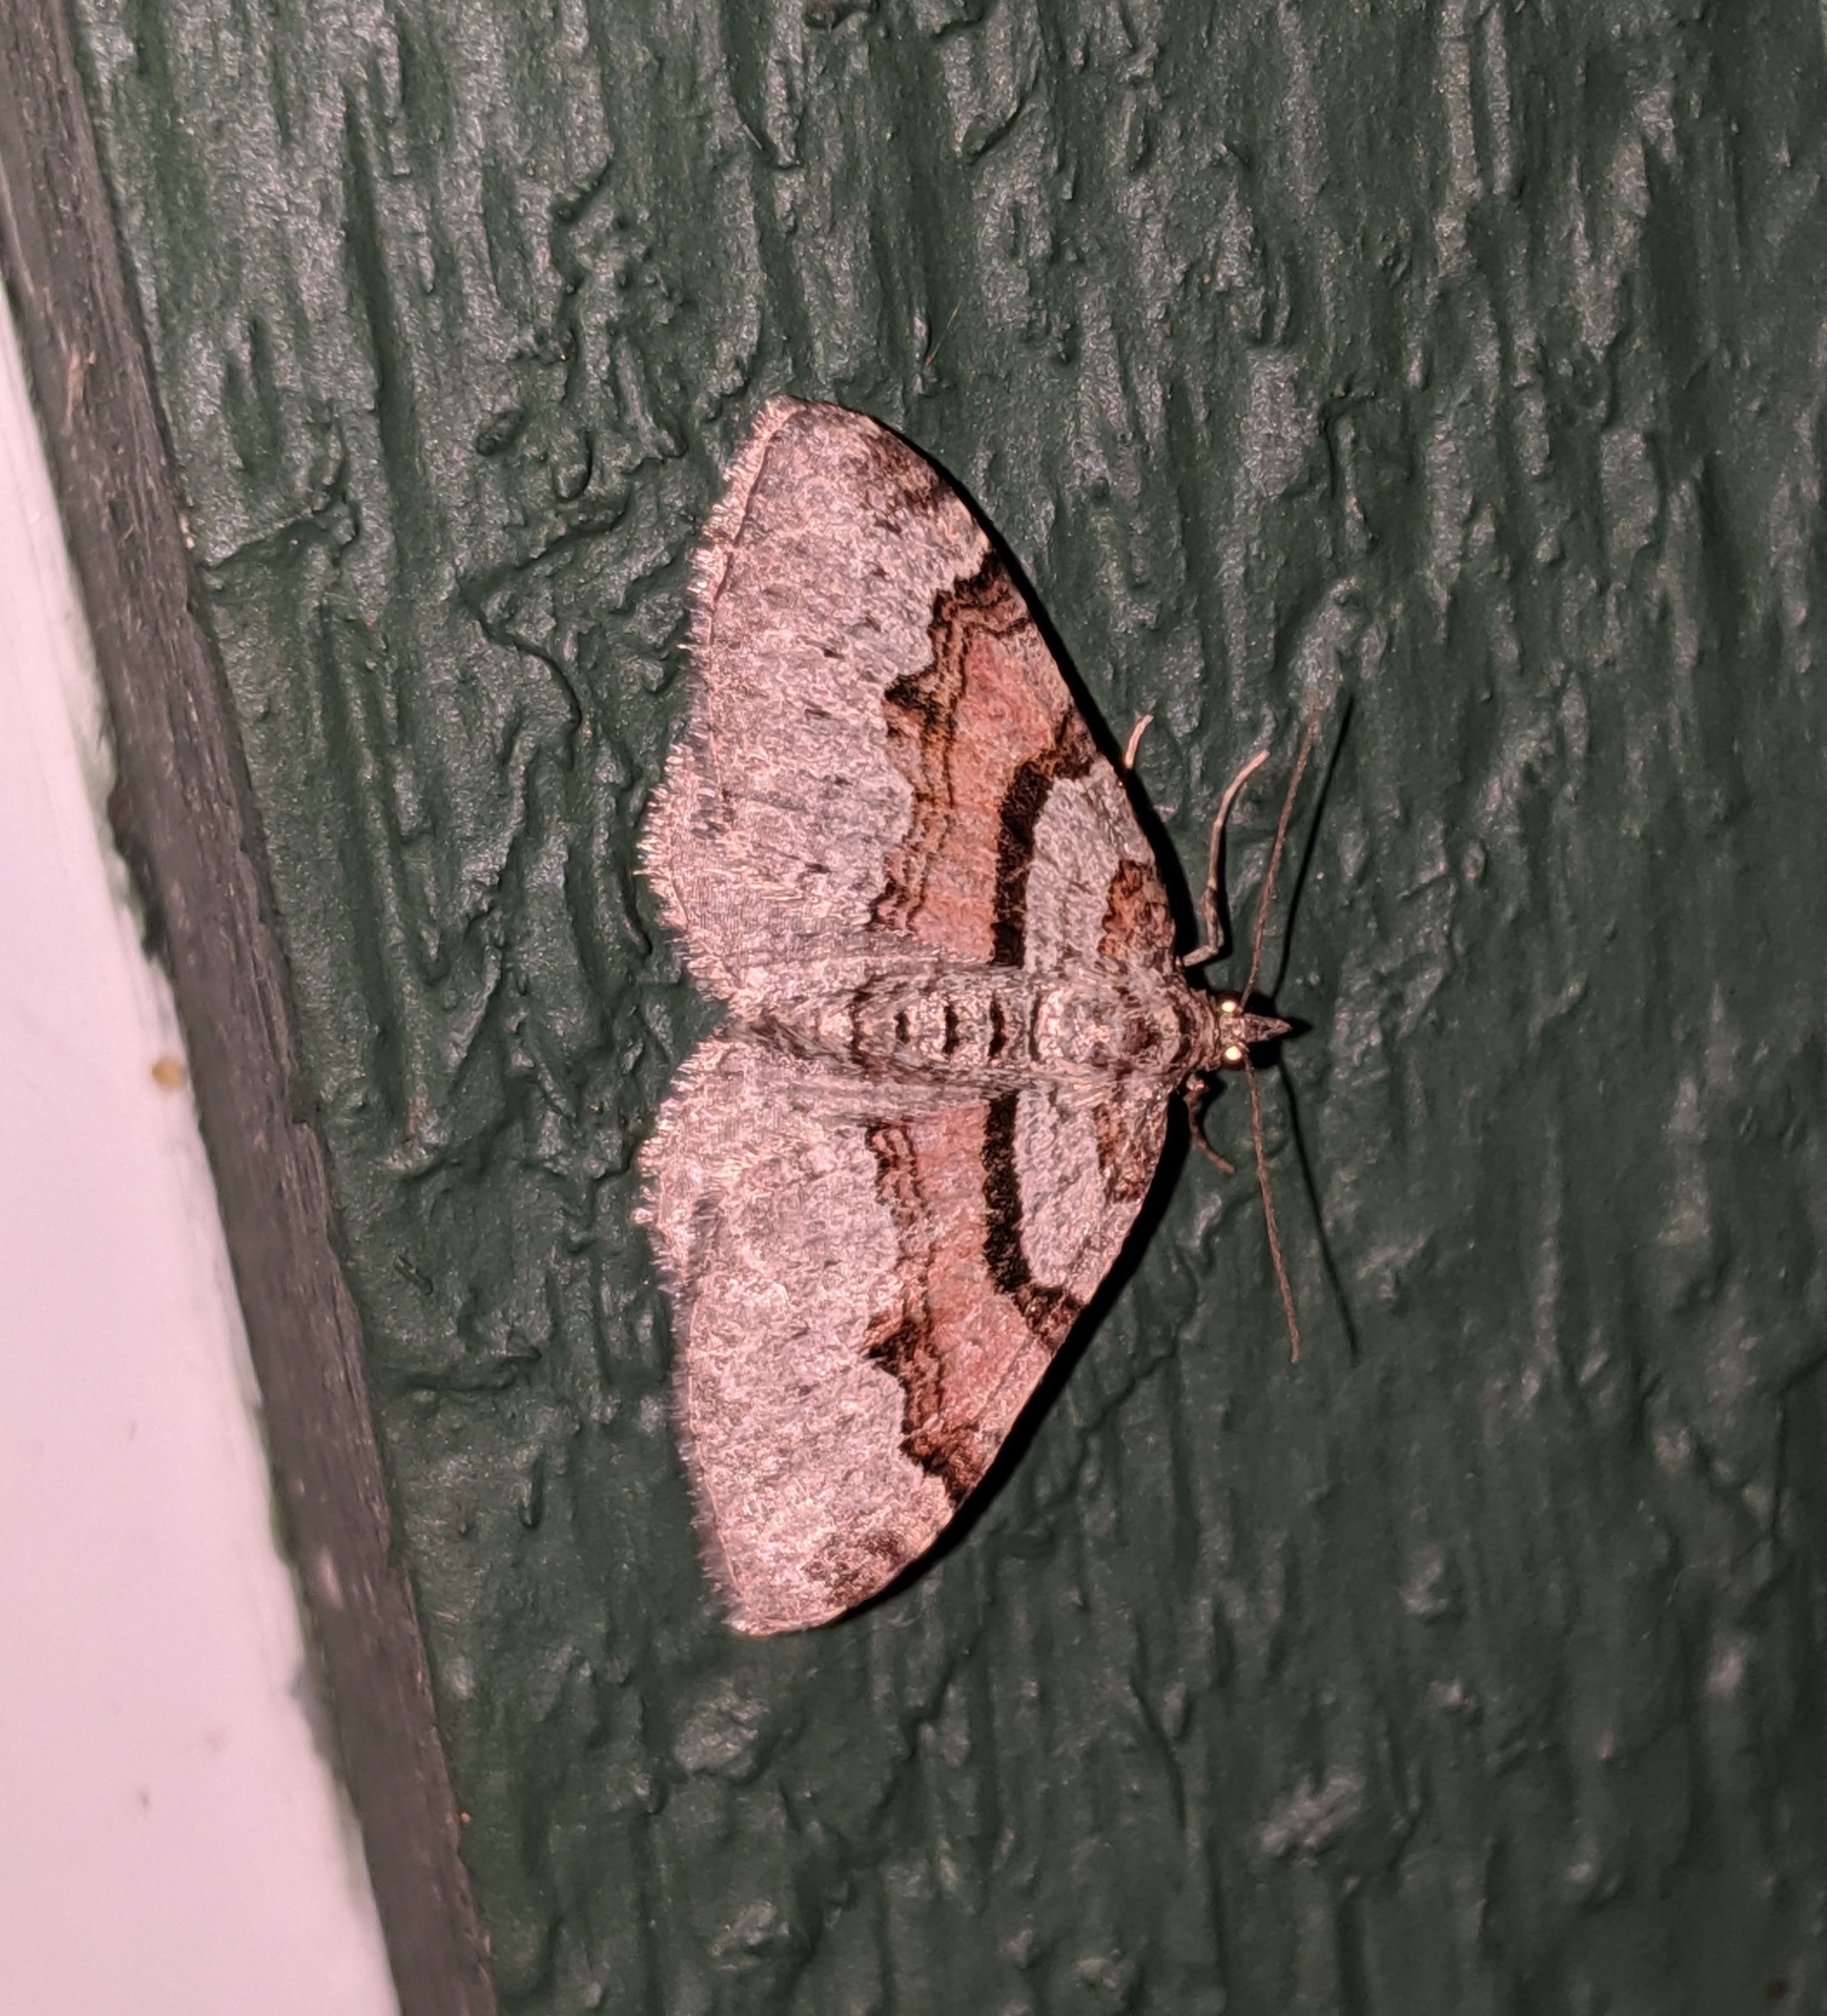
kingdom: Animalia
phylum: Arthropoda
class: Insecta
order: Lepidoptera
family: Geometridae
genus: Xanthorhoe
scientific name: Xanthorhoe labradorensis
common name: Labrador carpet
